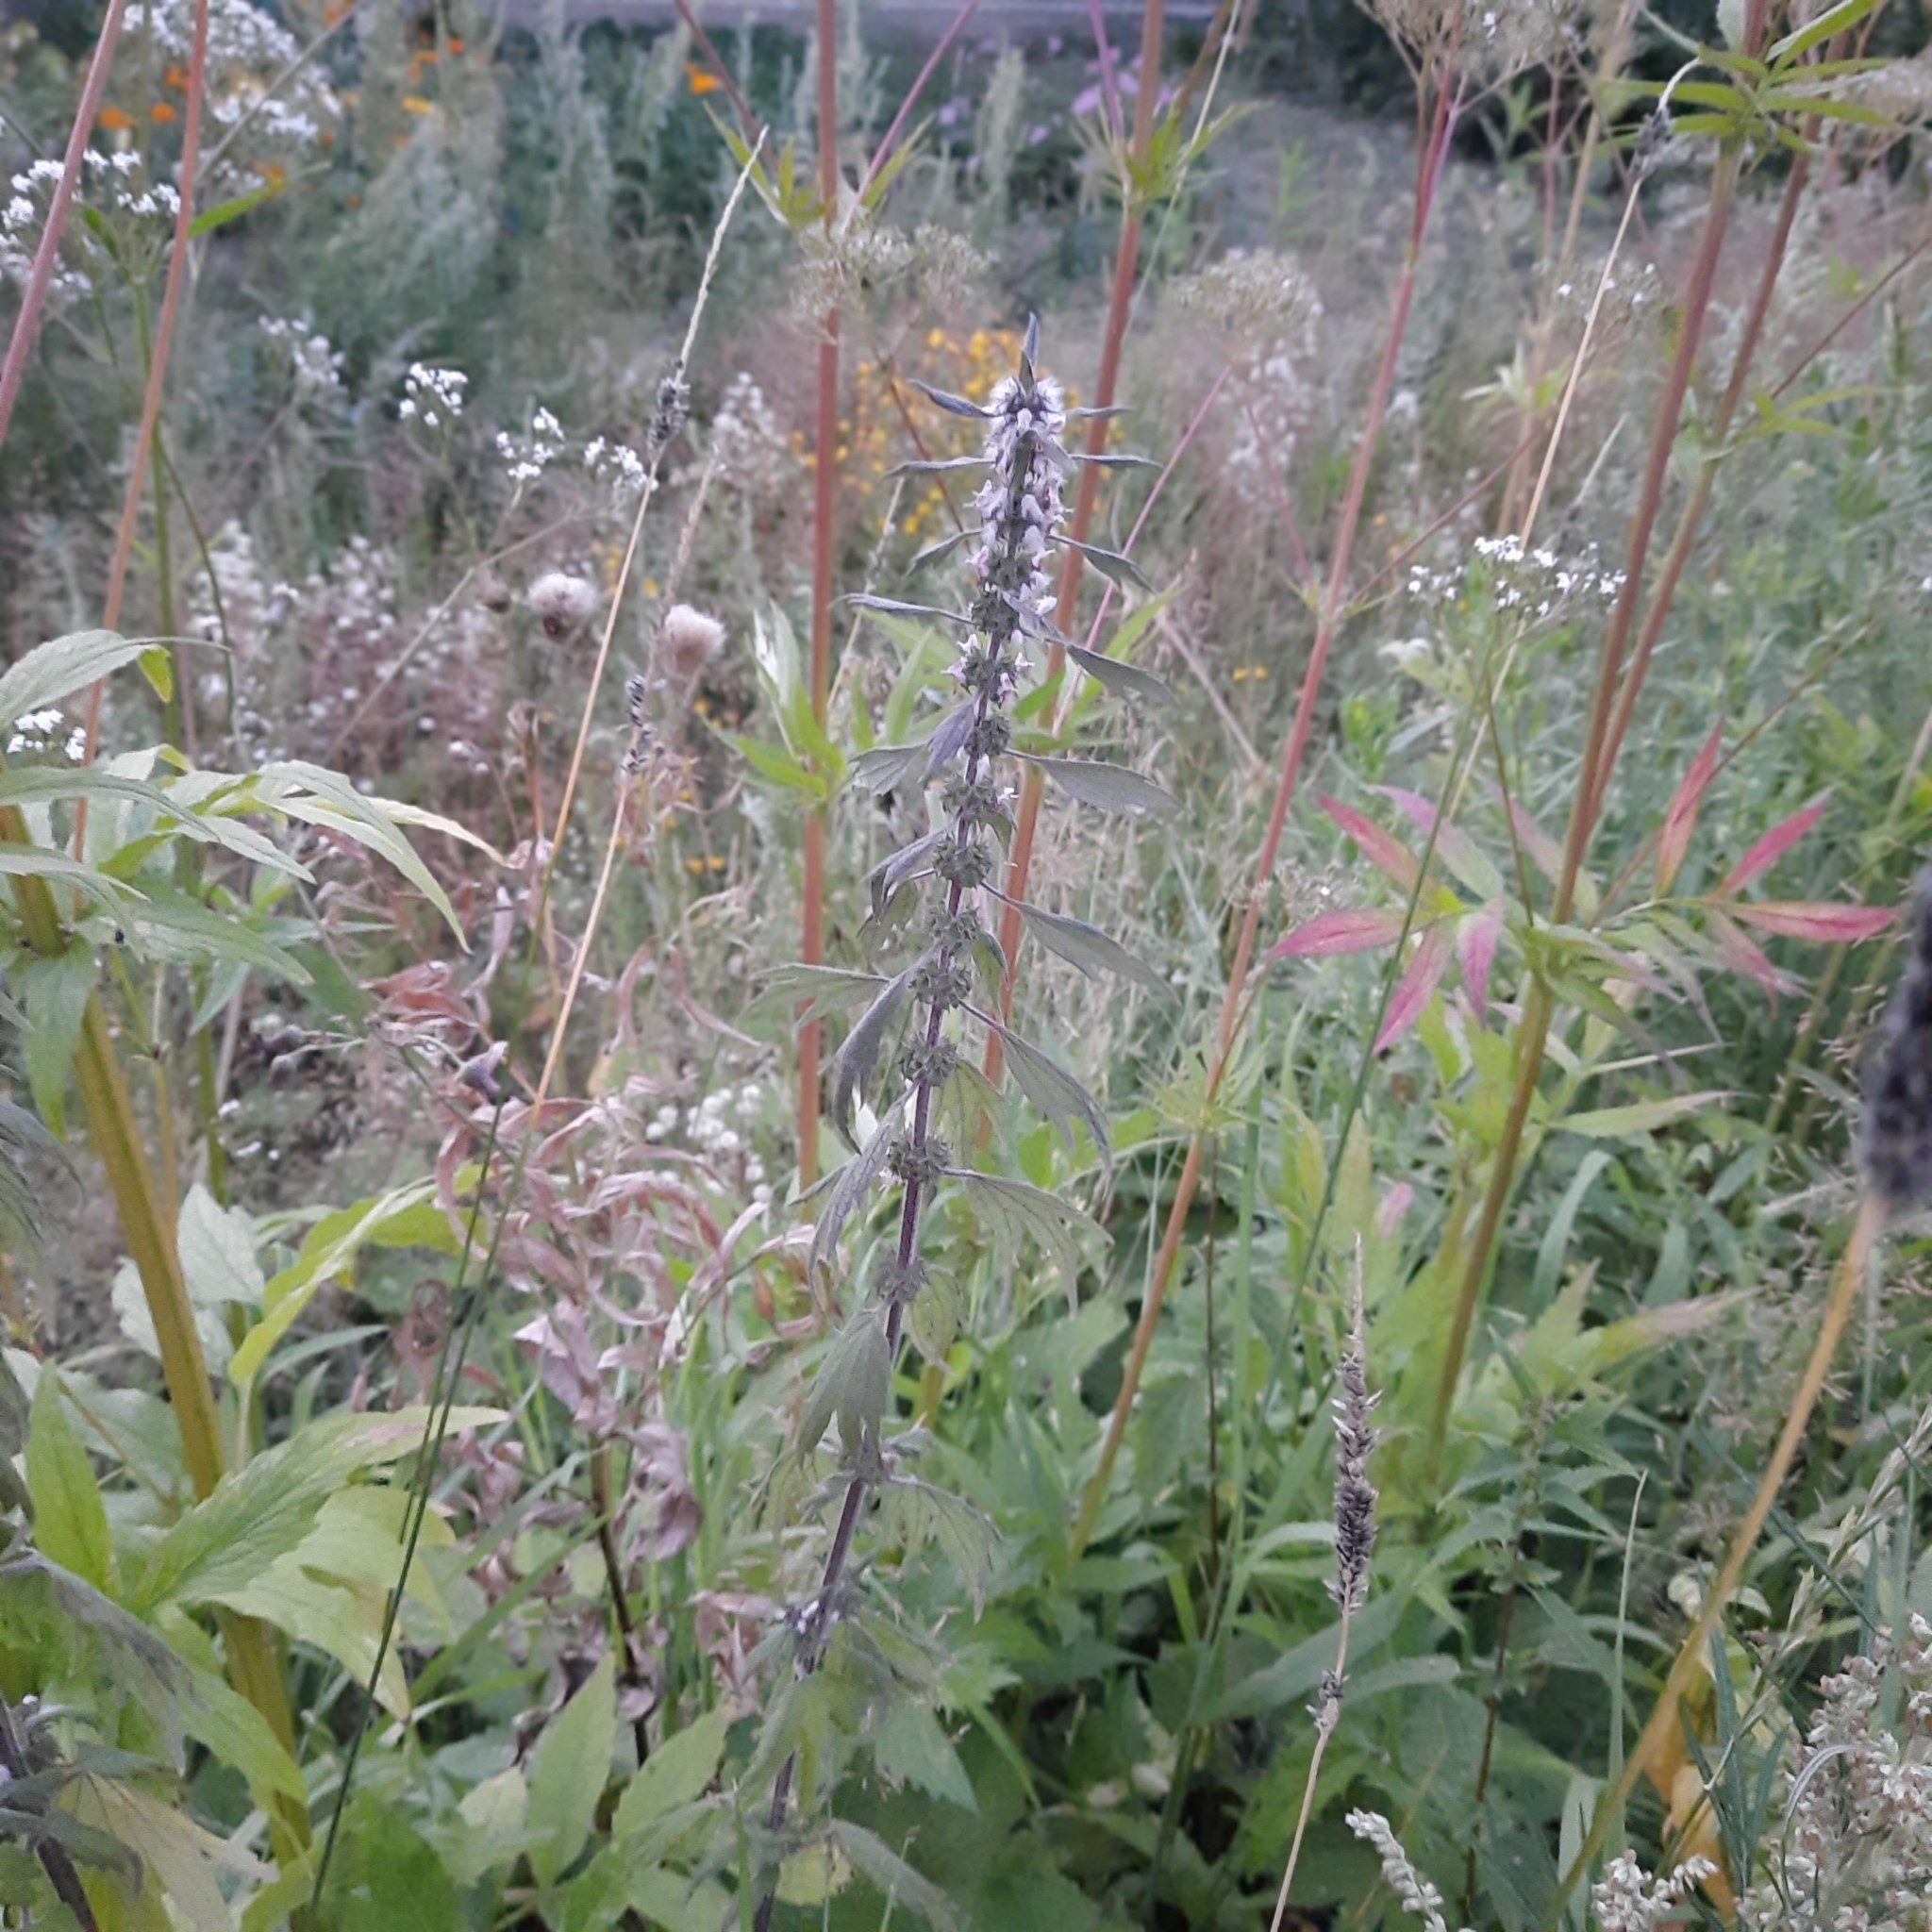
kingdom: Plantae
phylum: Tracheophyta
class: Magnoliopsida
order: Lamiales
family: Lamiaceae
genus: Leonurus
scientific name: Leonurus quinquelobatus
